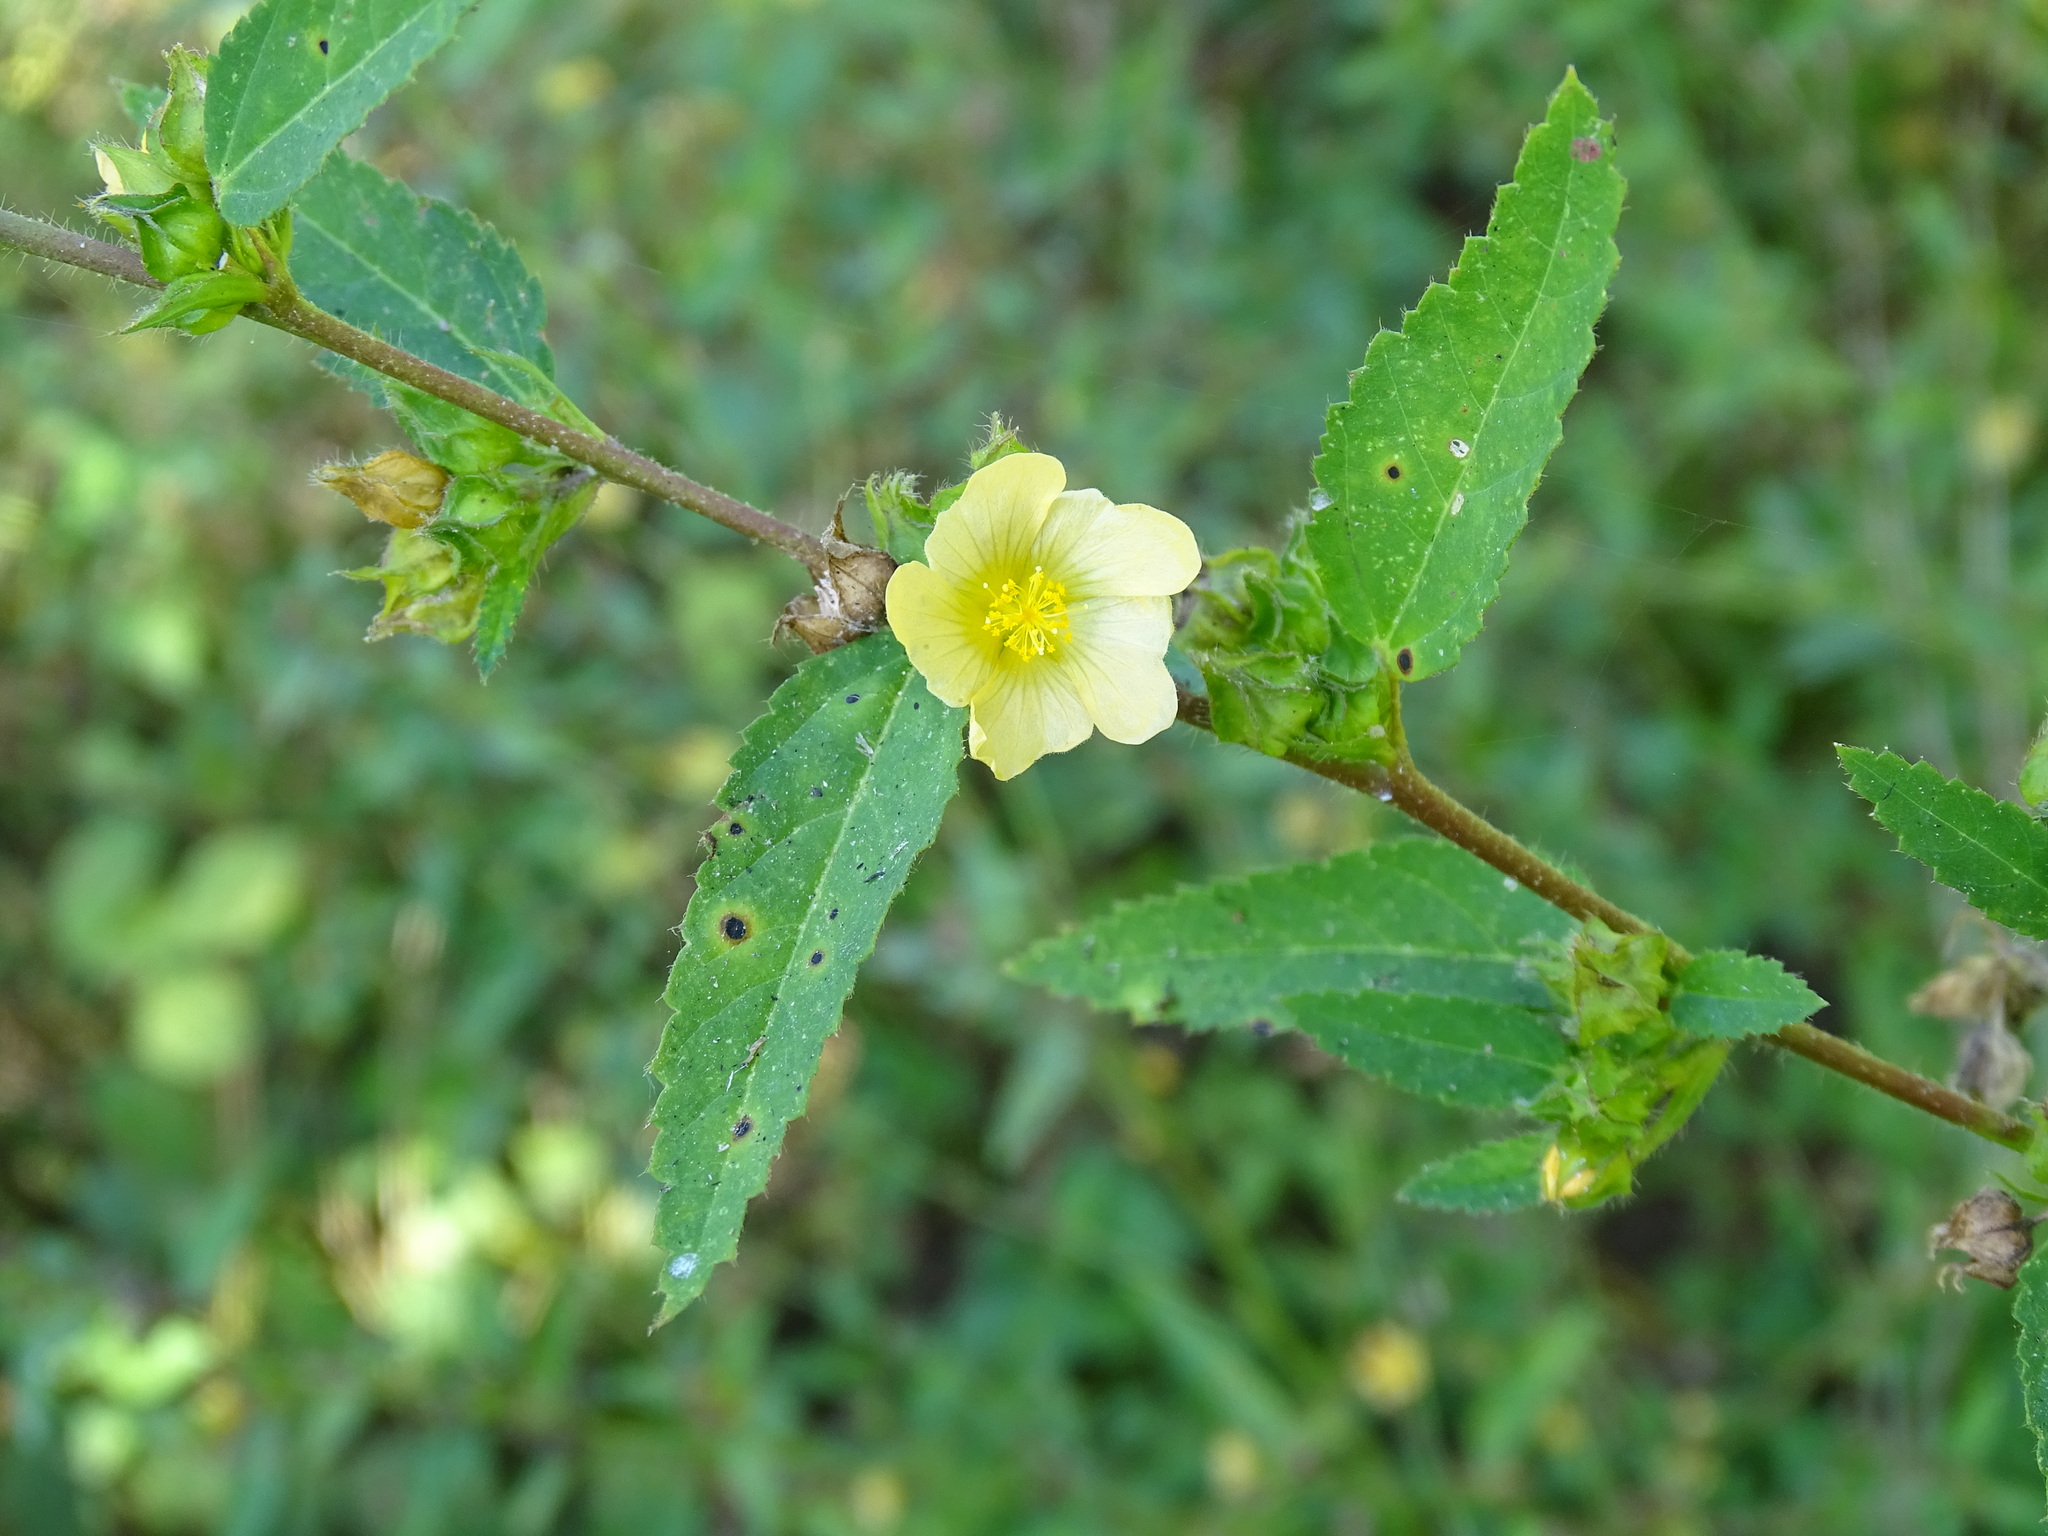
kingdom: Plantae
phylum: Tracheophyta
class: Magnoliopsida
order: Malvales
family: Malvaceae
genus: Sida
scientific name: Sida acuta
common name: Common wireweed
